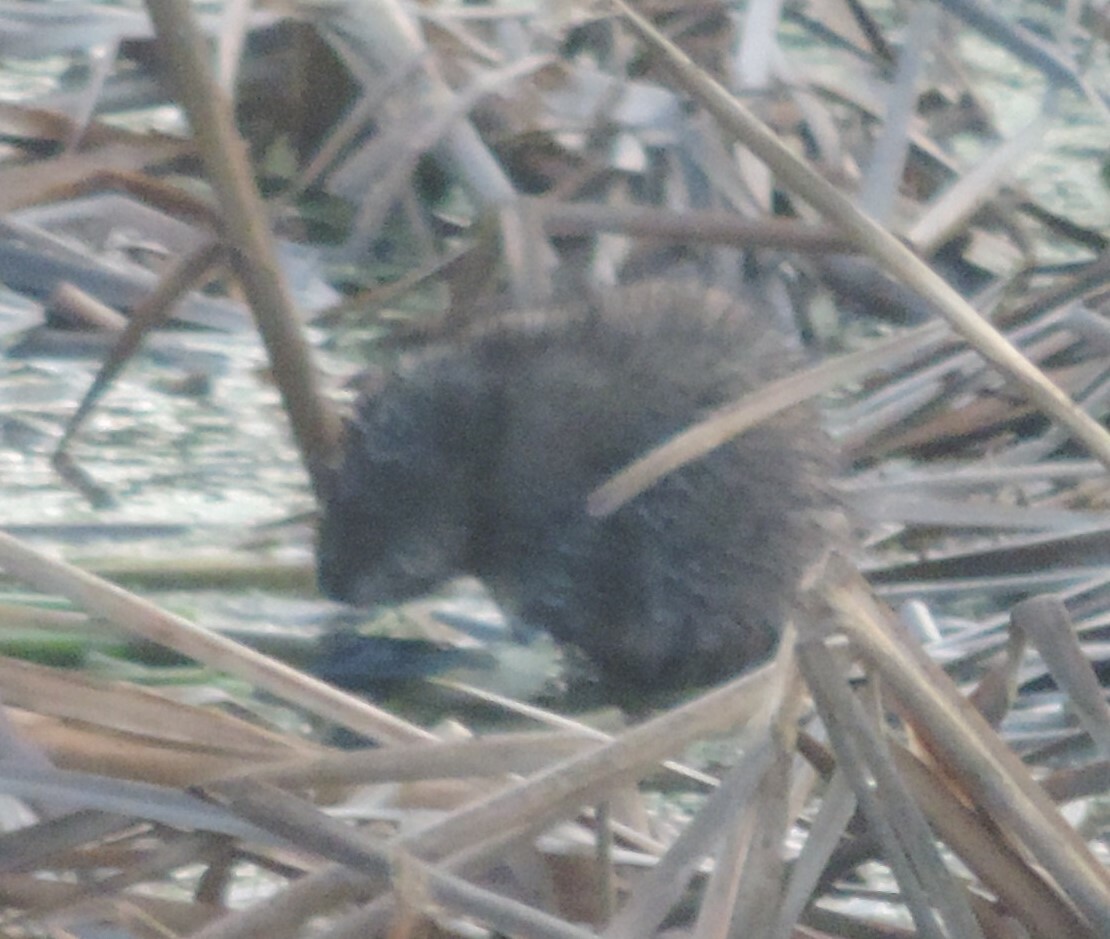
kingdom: Animalia
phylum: Chordata
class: Mammalia
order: Rodentia
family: Cricetidae
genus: Ondatra
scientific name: Ondatra zibethicus
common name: Muskrat
